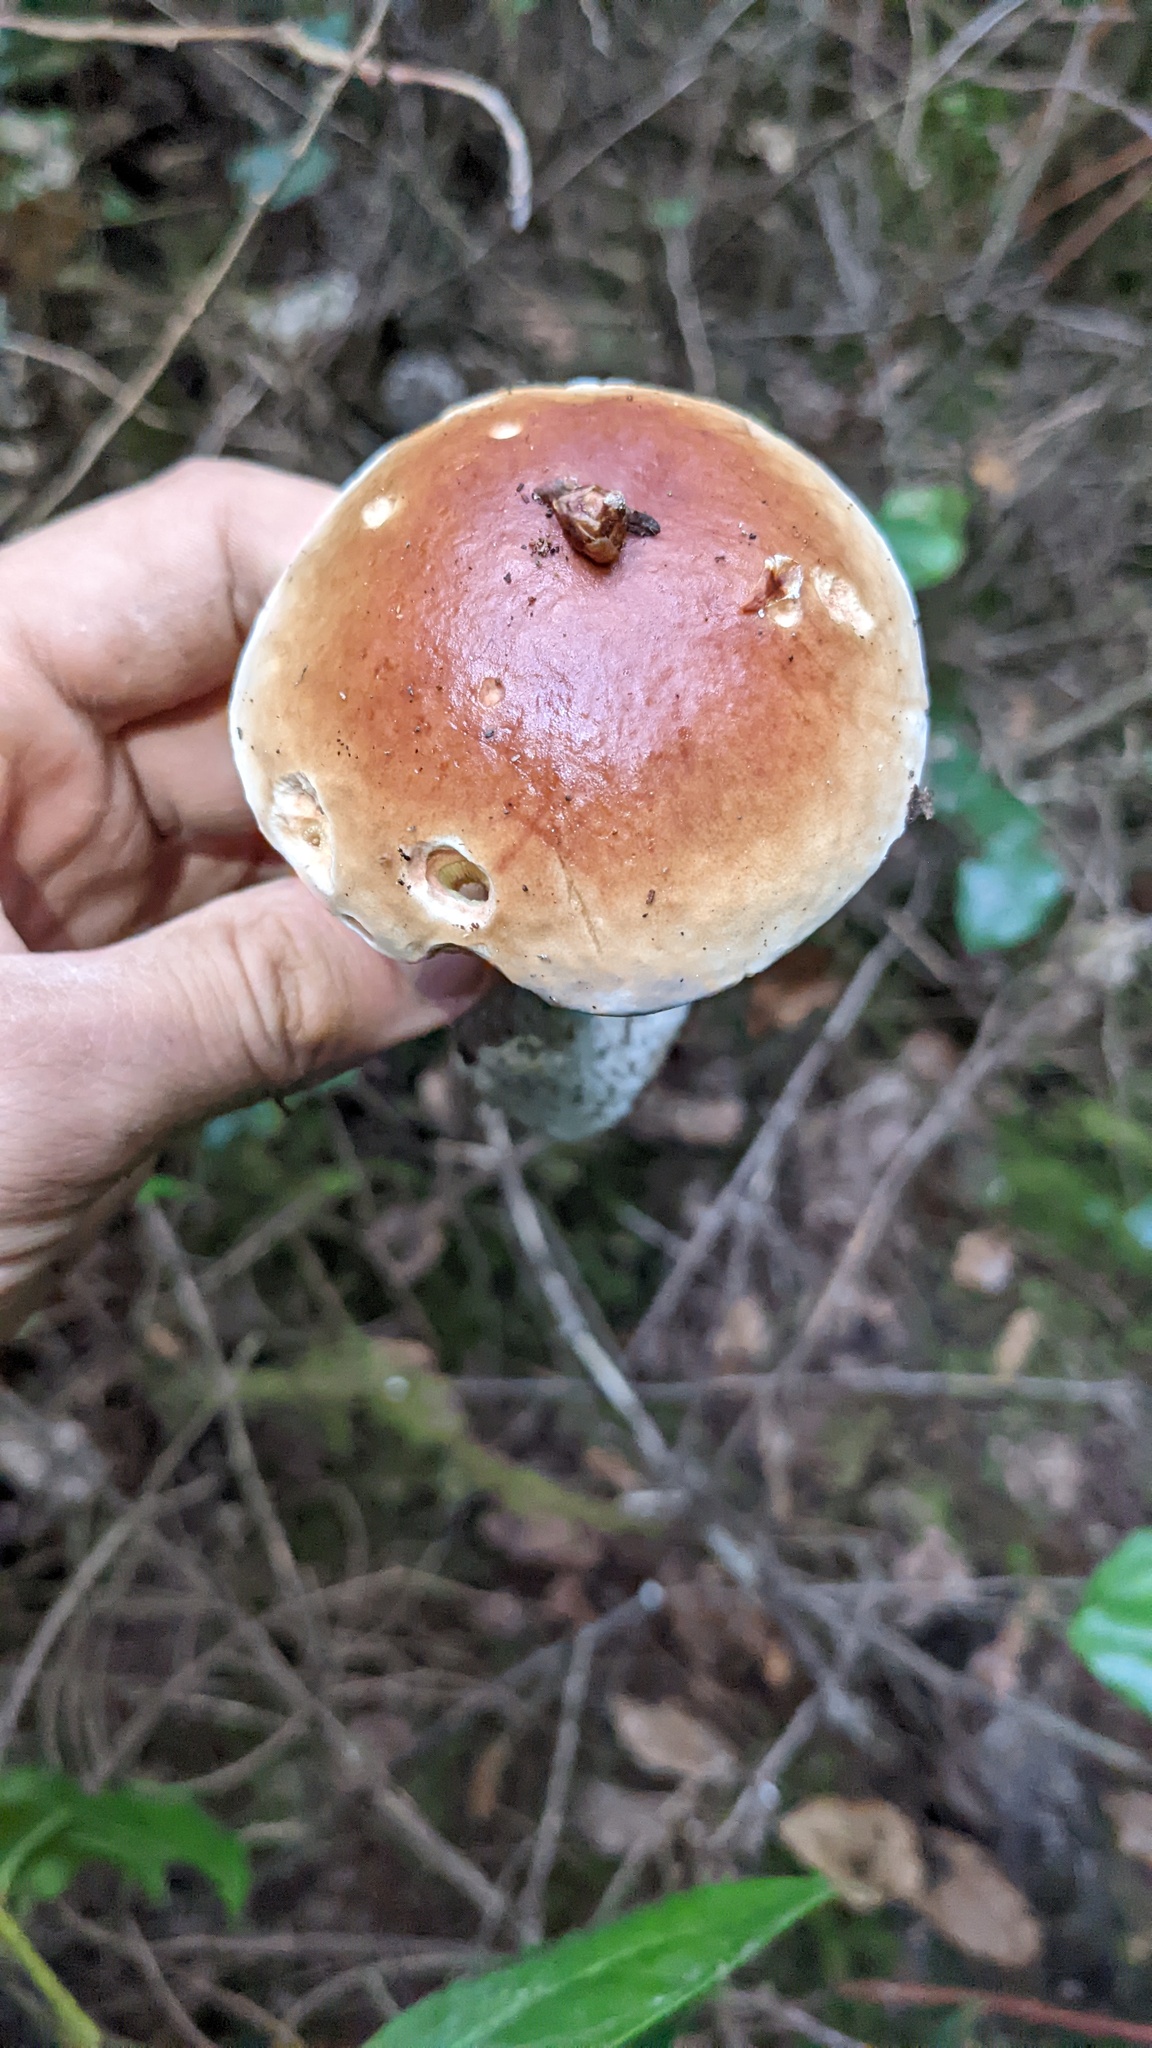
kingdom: Fungi
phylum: Basidiomycota
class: Agaricomycetes
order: Boletales
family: Boletaceae
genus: Boletus
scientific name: Boletus edulis
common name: Cep
